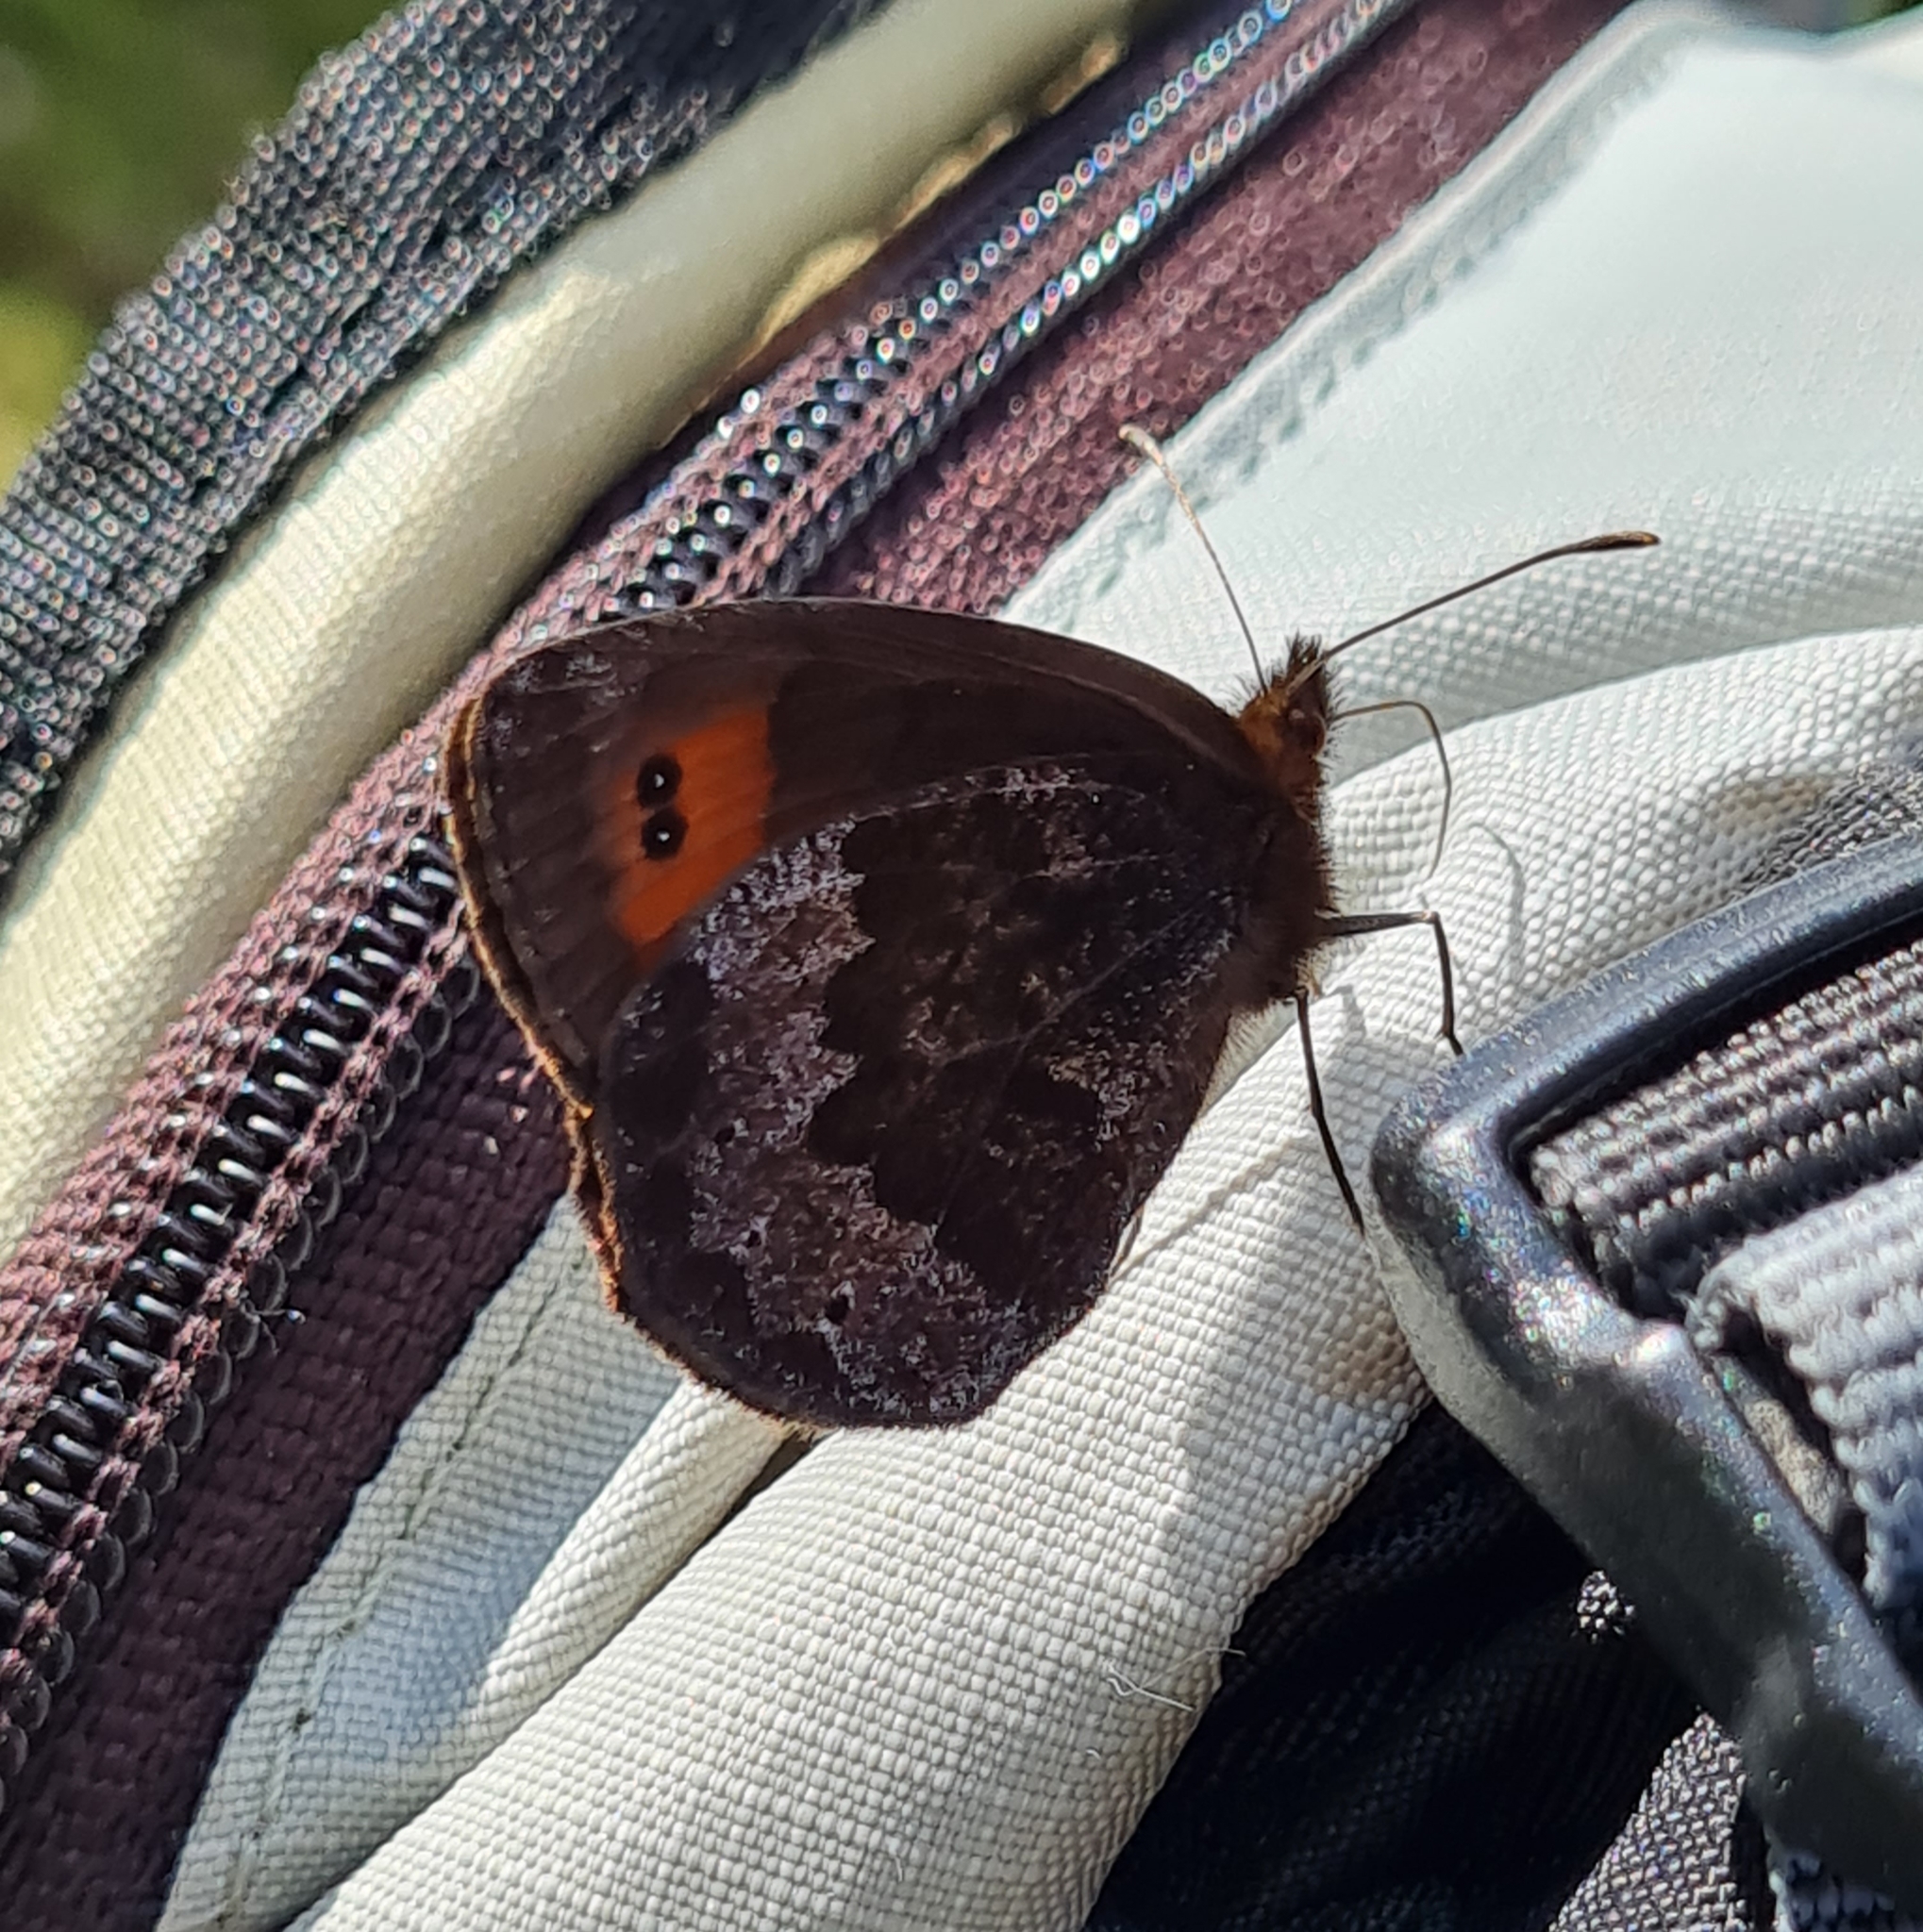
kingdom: Animalia
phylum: Arthropoda
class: Insecta
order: Lepidoptera
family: Nymphalidae
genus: Erebia
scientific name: Erebia pronoe
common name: Water ringlet
